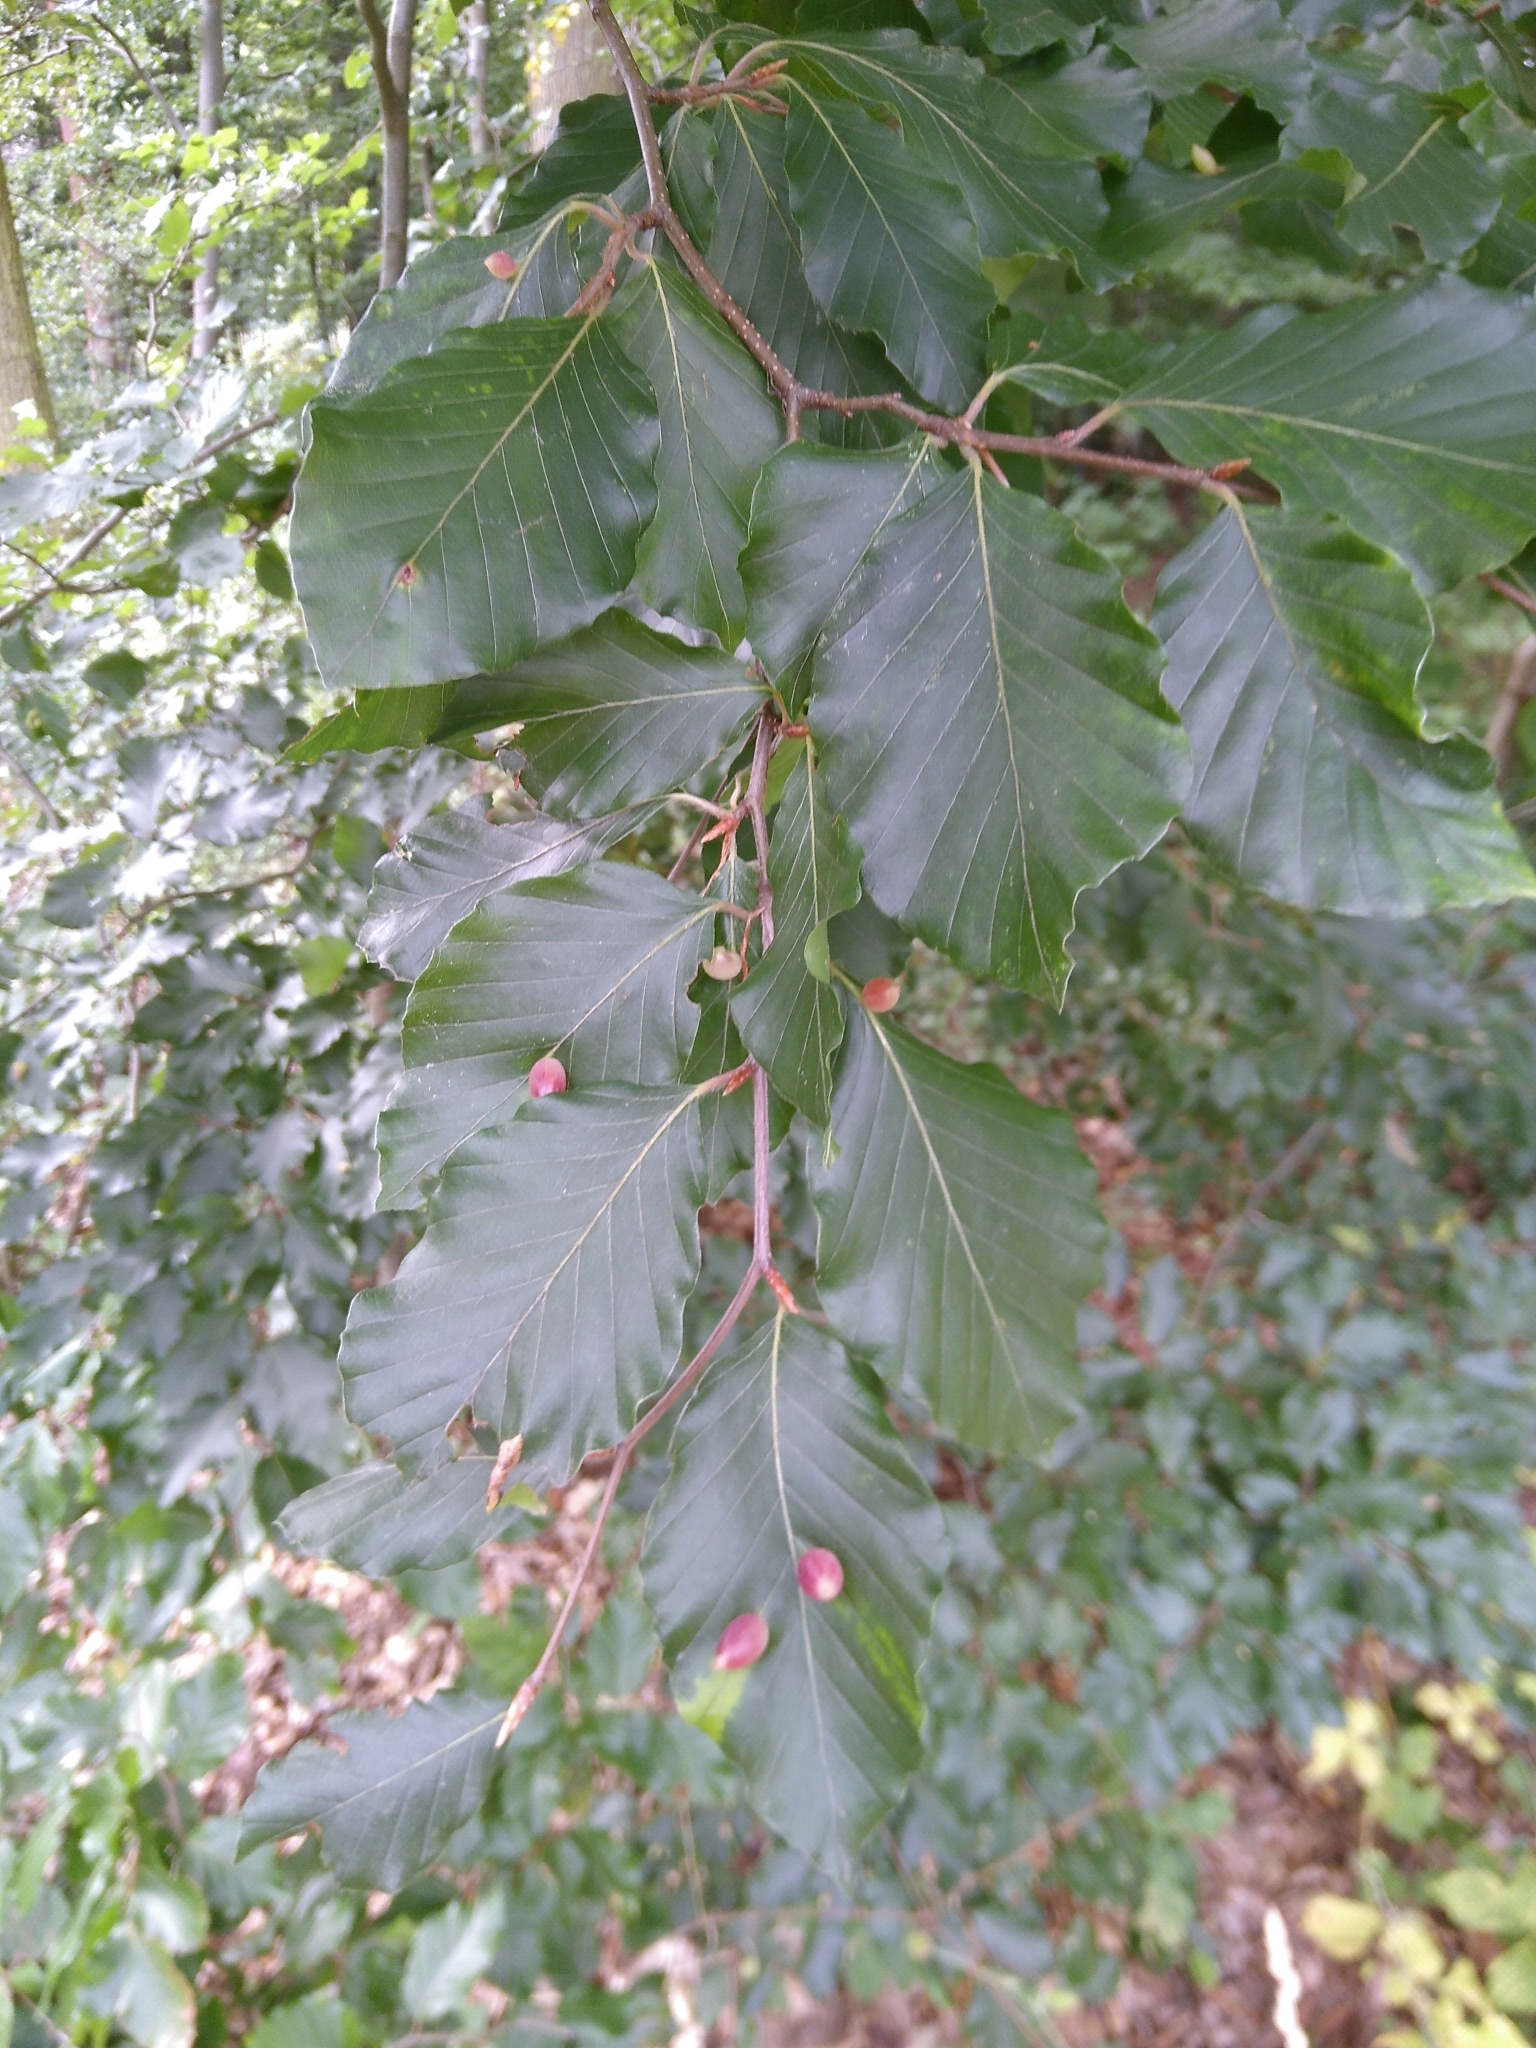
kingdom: Animalia
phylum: Arthropoda
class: Insecta
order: Diptera
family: Cecidomyiidae
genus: Mikiola
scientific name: Mikiola fagi
